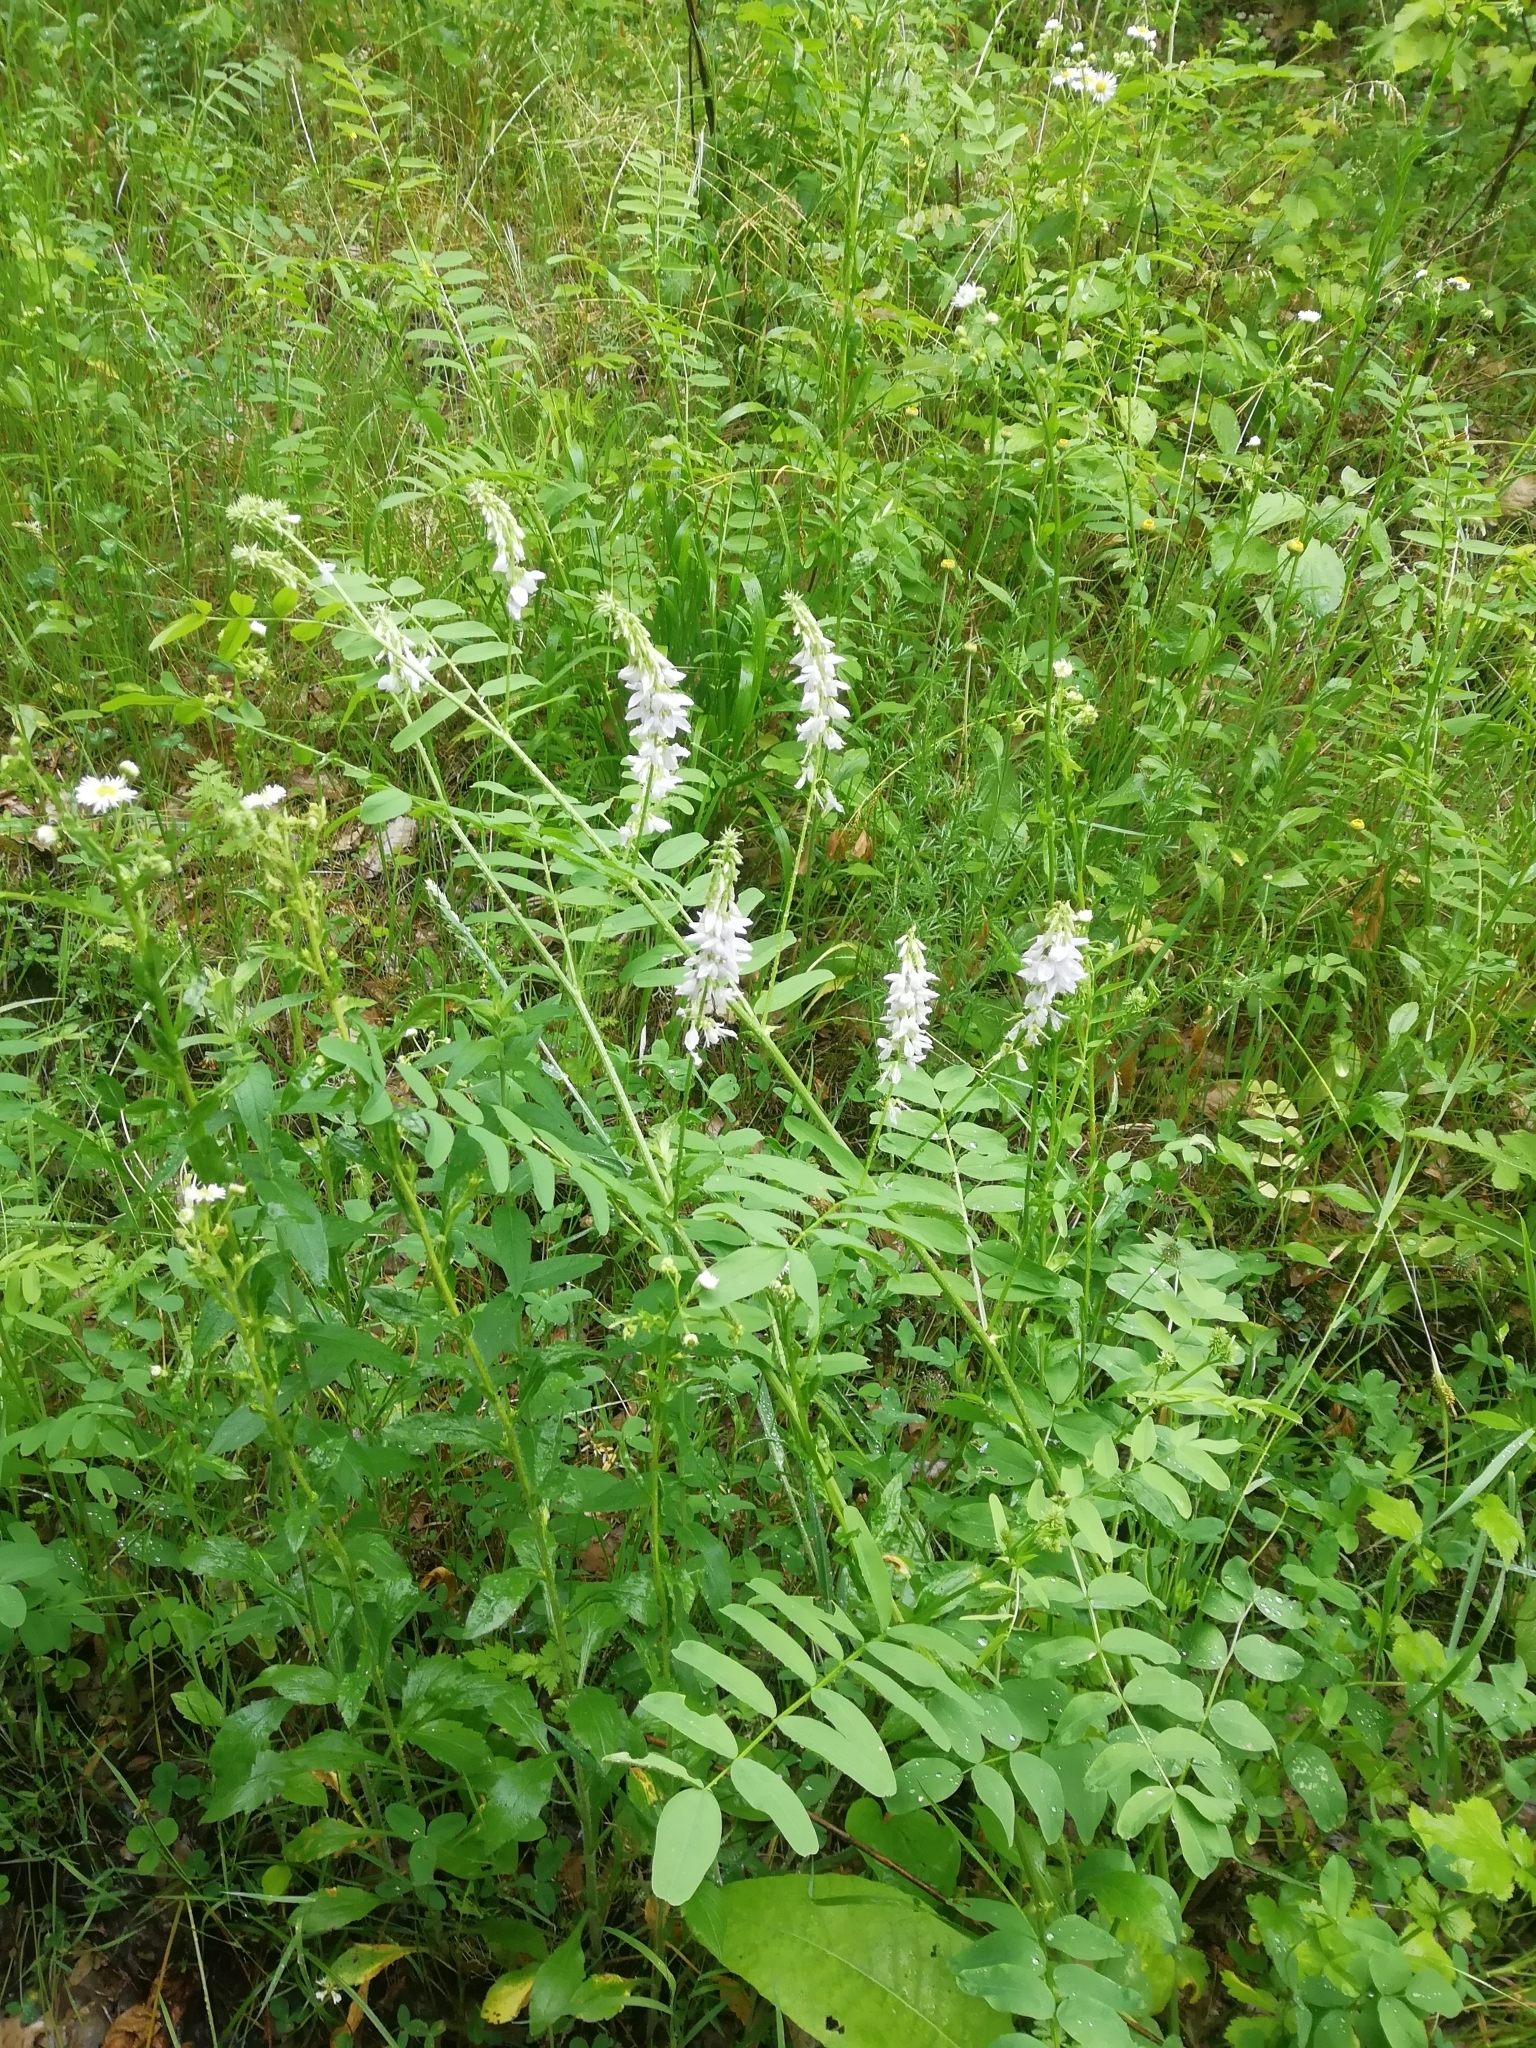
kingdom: Plantae
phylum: Tracheophyta
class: Magnoliopsida
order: Fabales
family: Fabaceae
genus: Galega
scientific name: Galega officinalis
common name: Goat's-rue
